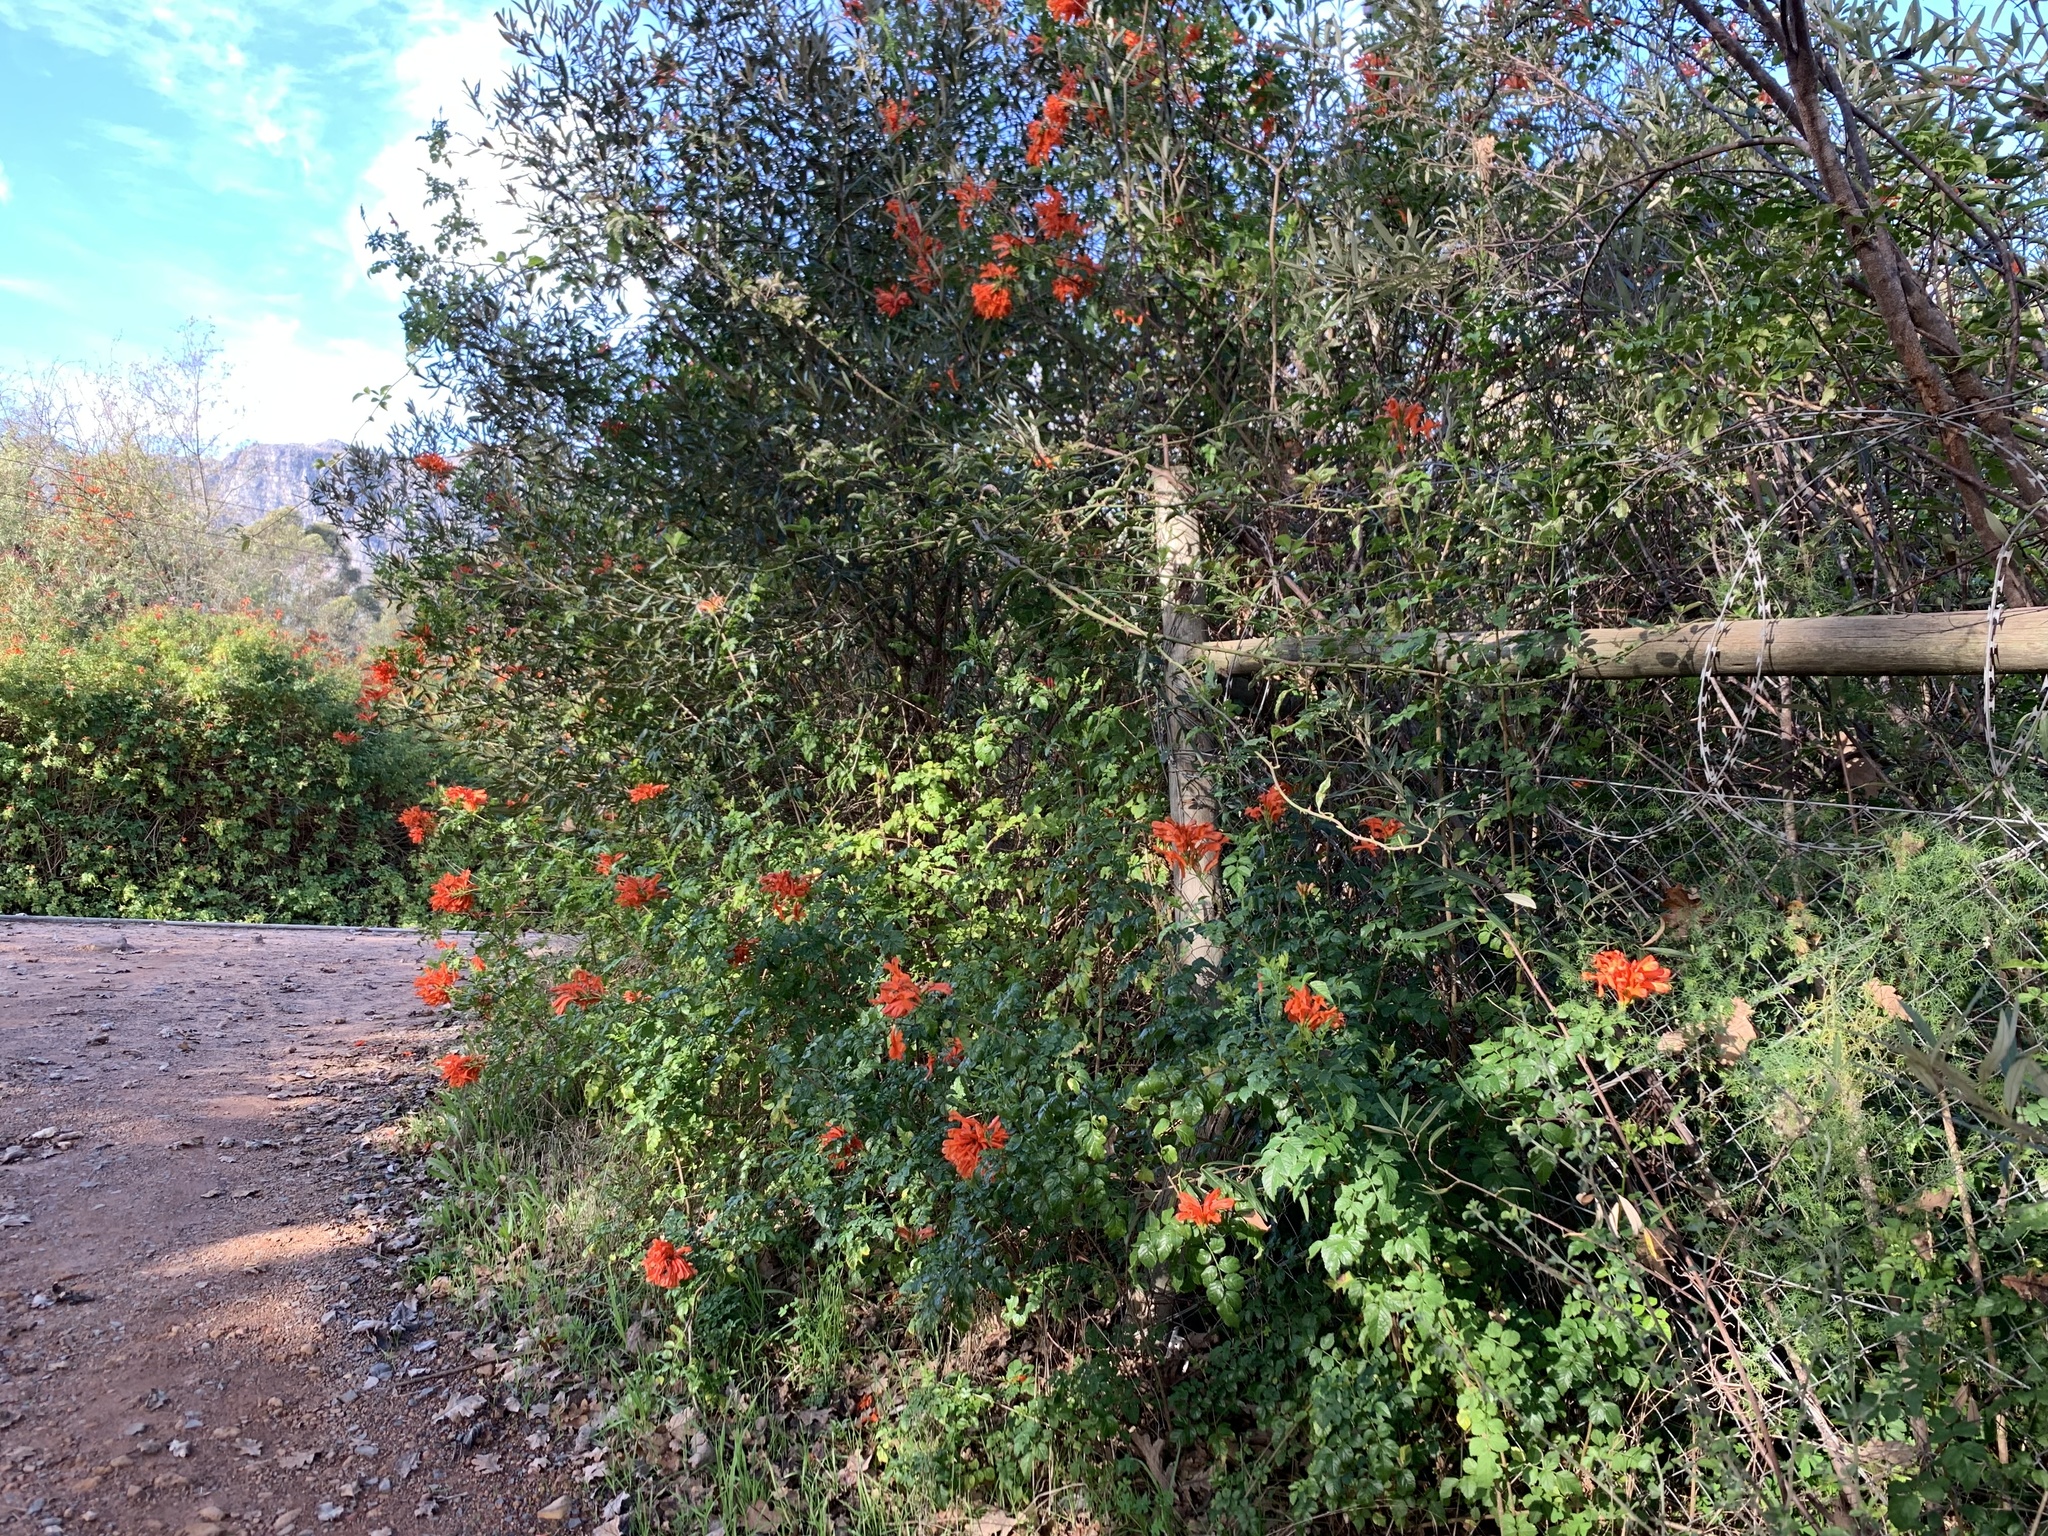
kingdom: Plantae
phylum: Tracheophyta
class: Magnoliopsida
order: Lamiales
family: Bignoniaceae
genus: Tecomaria
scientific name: Tecomaria capensis
